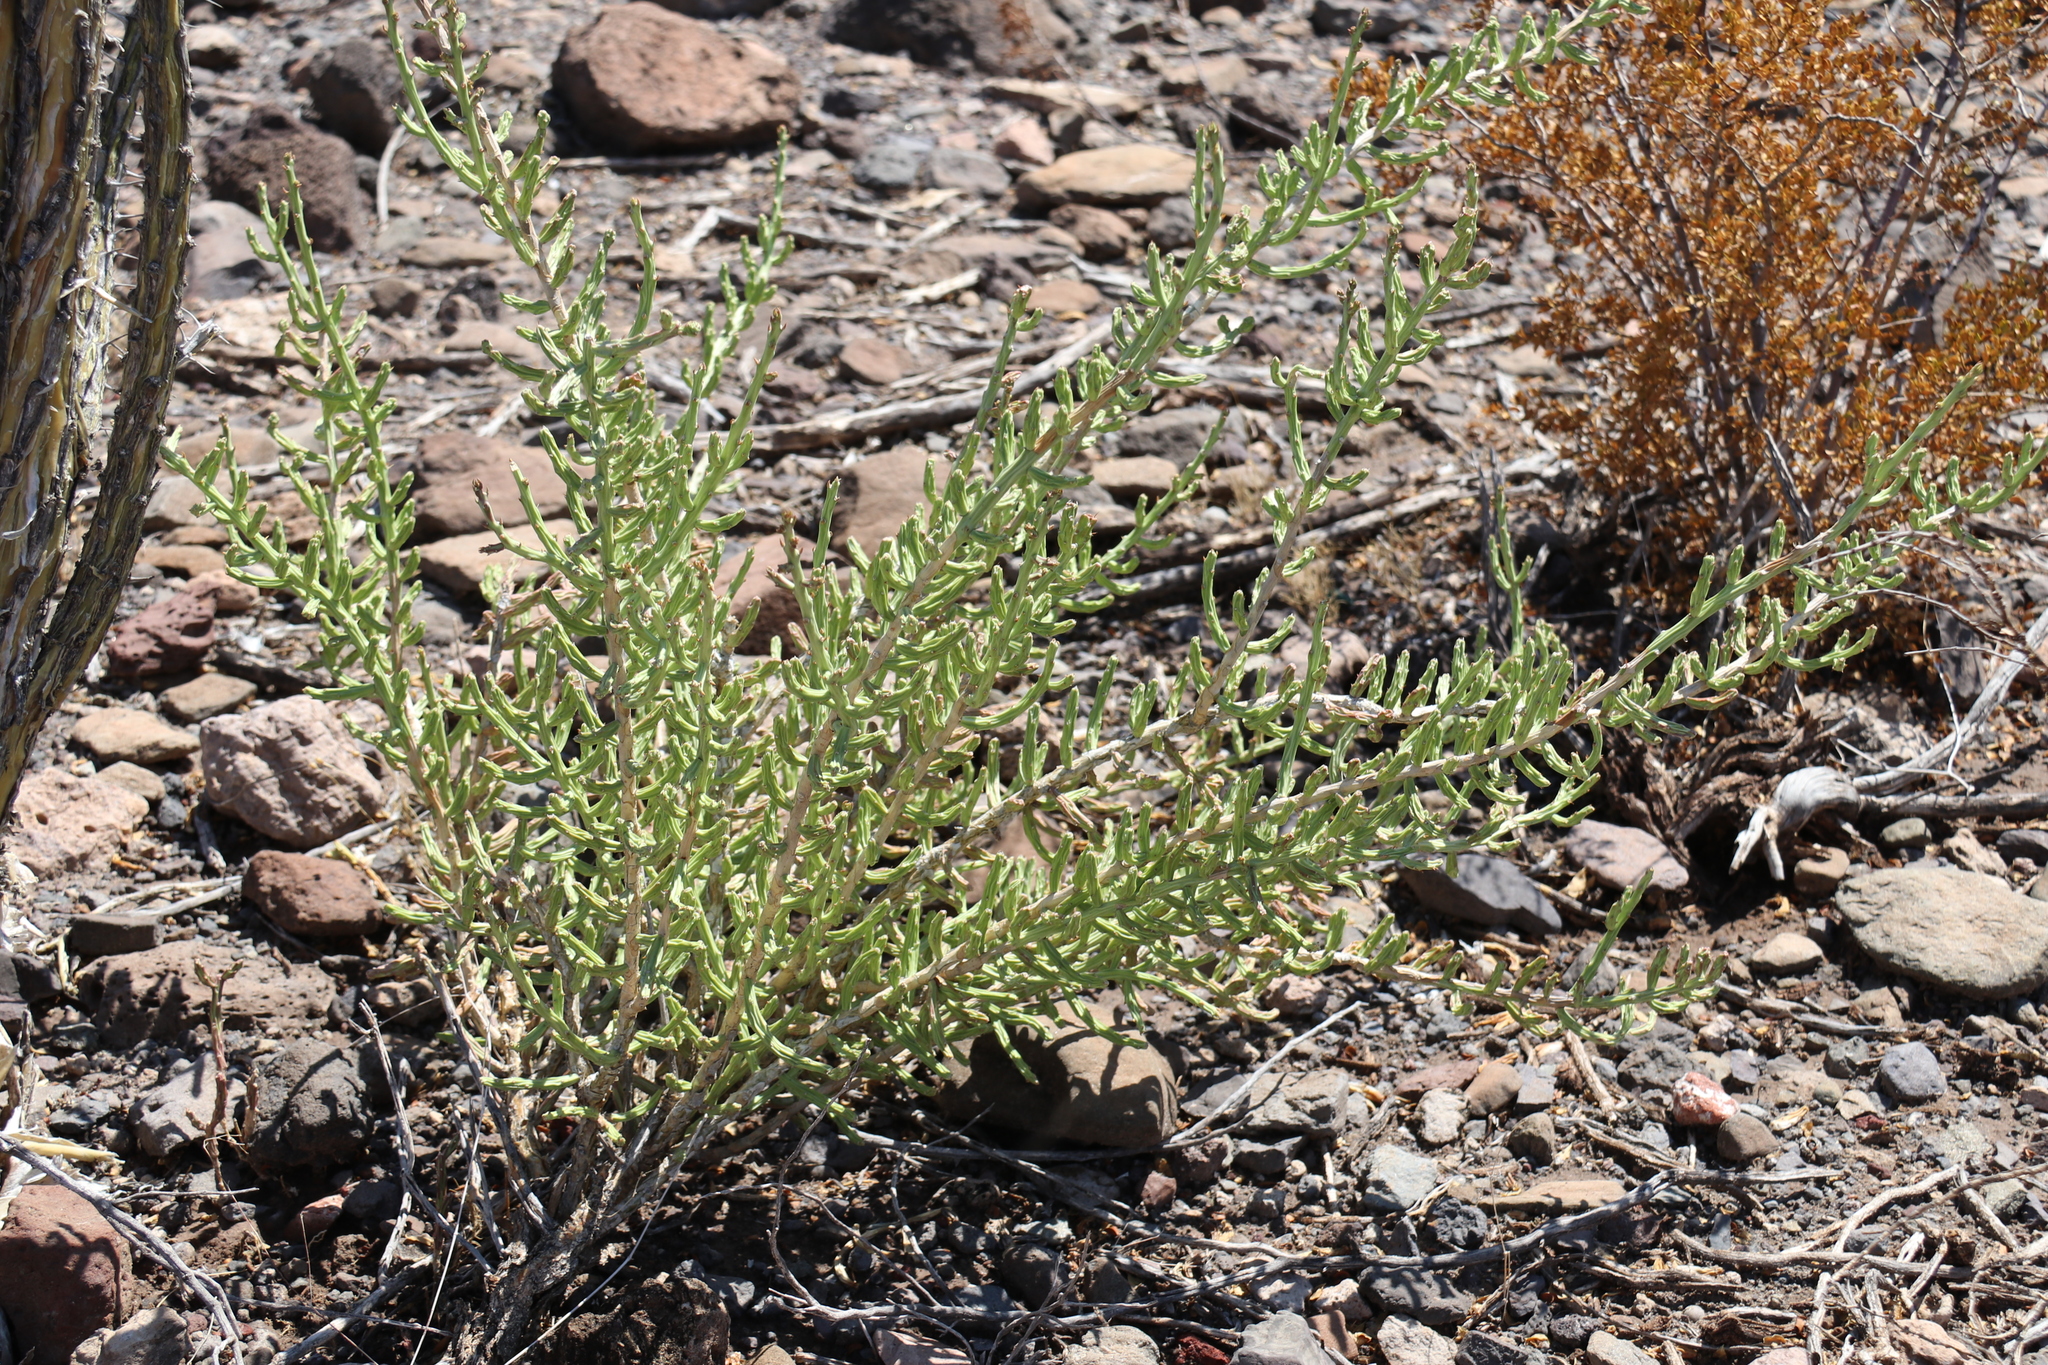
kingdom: Plantae
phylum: Tracheophyta
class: Magnoliopsida
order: Caryophyllales
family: Cactaceae
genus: Cylindropuntia
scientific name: Cylindropuntia leptocaulis
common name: Christmas cactus
